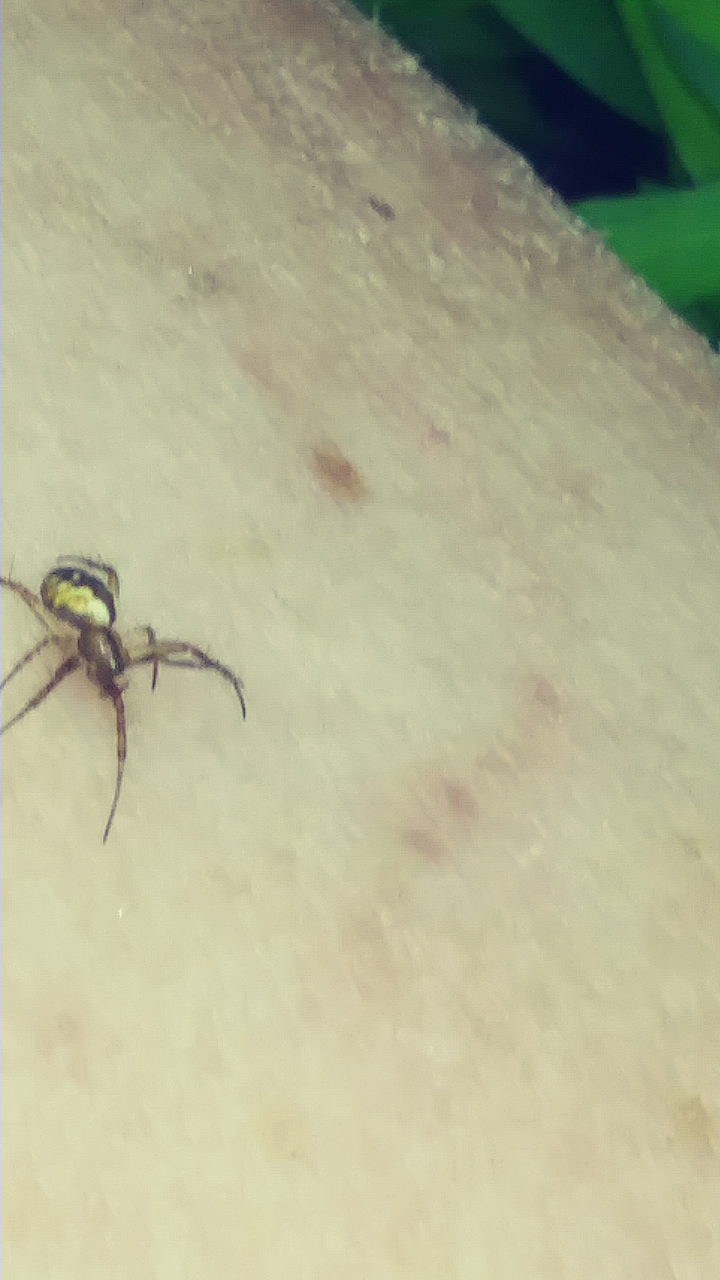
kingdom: Animalia
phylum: Arthropoda
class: Arachnida
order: Araneae
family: Araneidae
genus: Mangora
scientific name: Mangora placida
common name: Tuft-legged orbweaver
